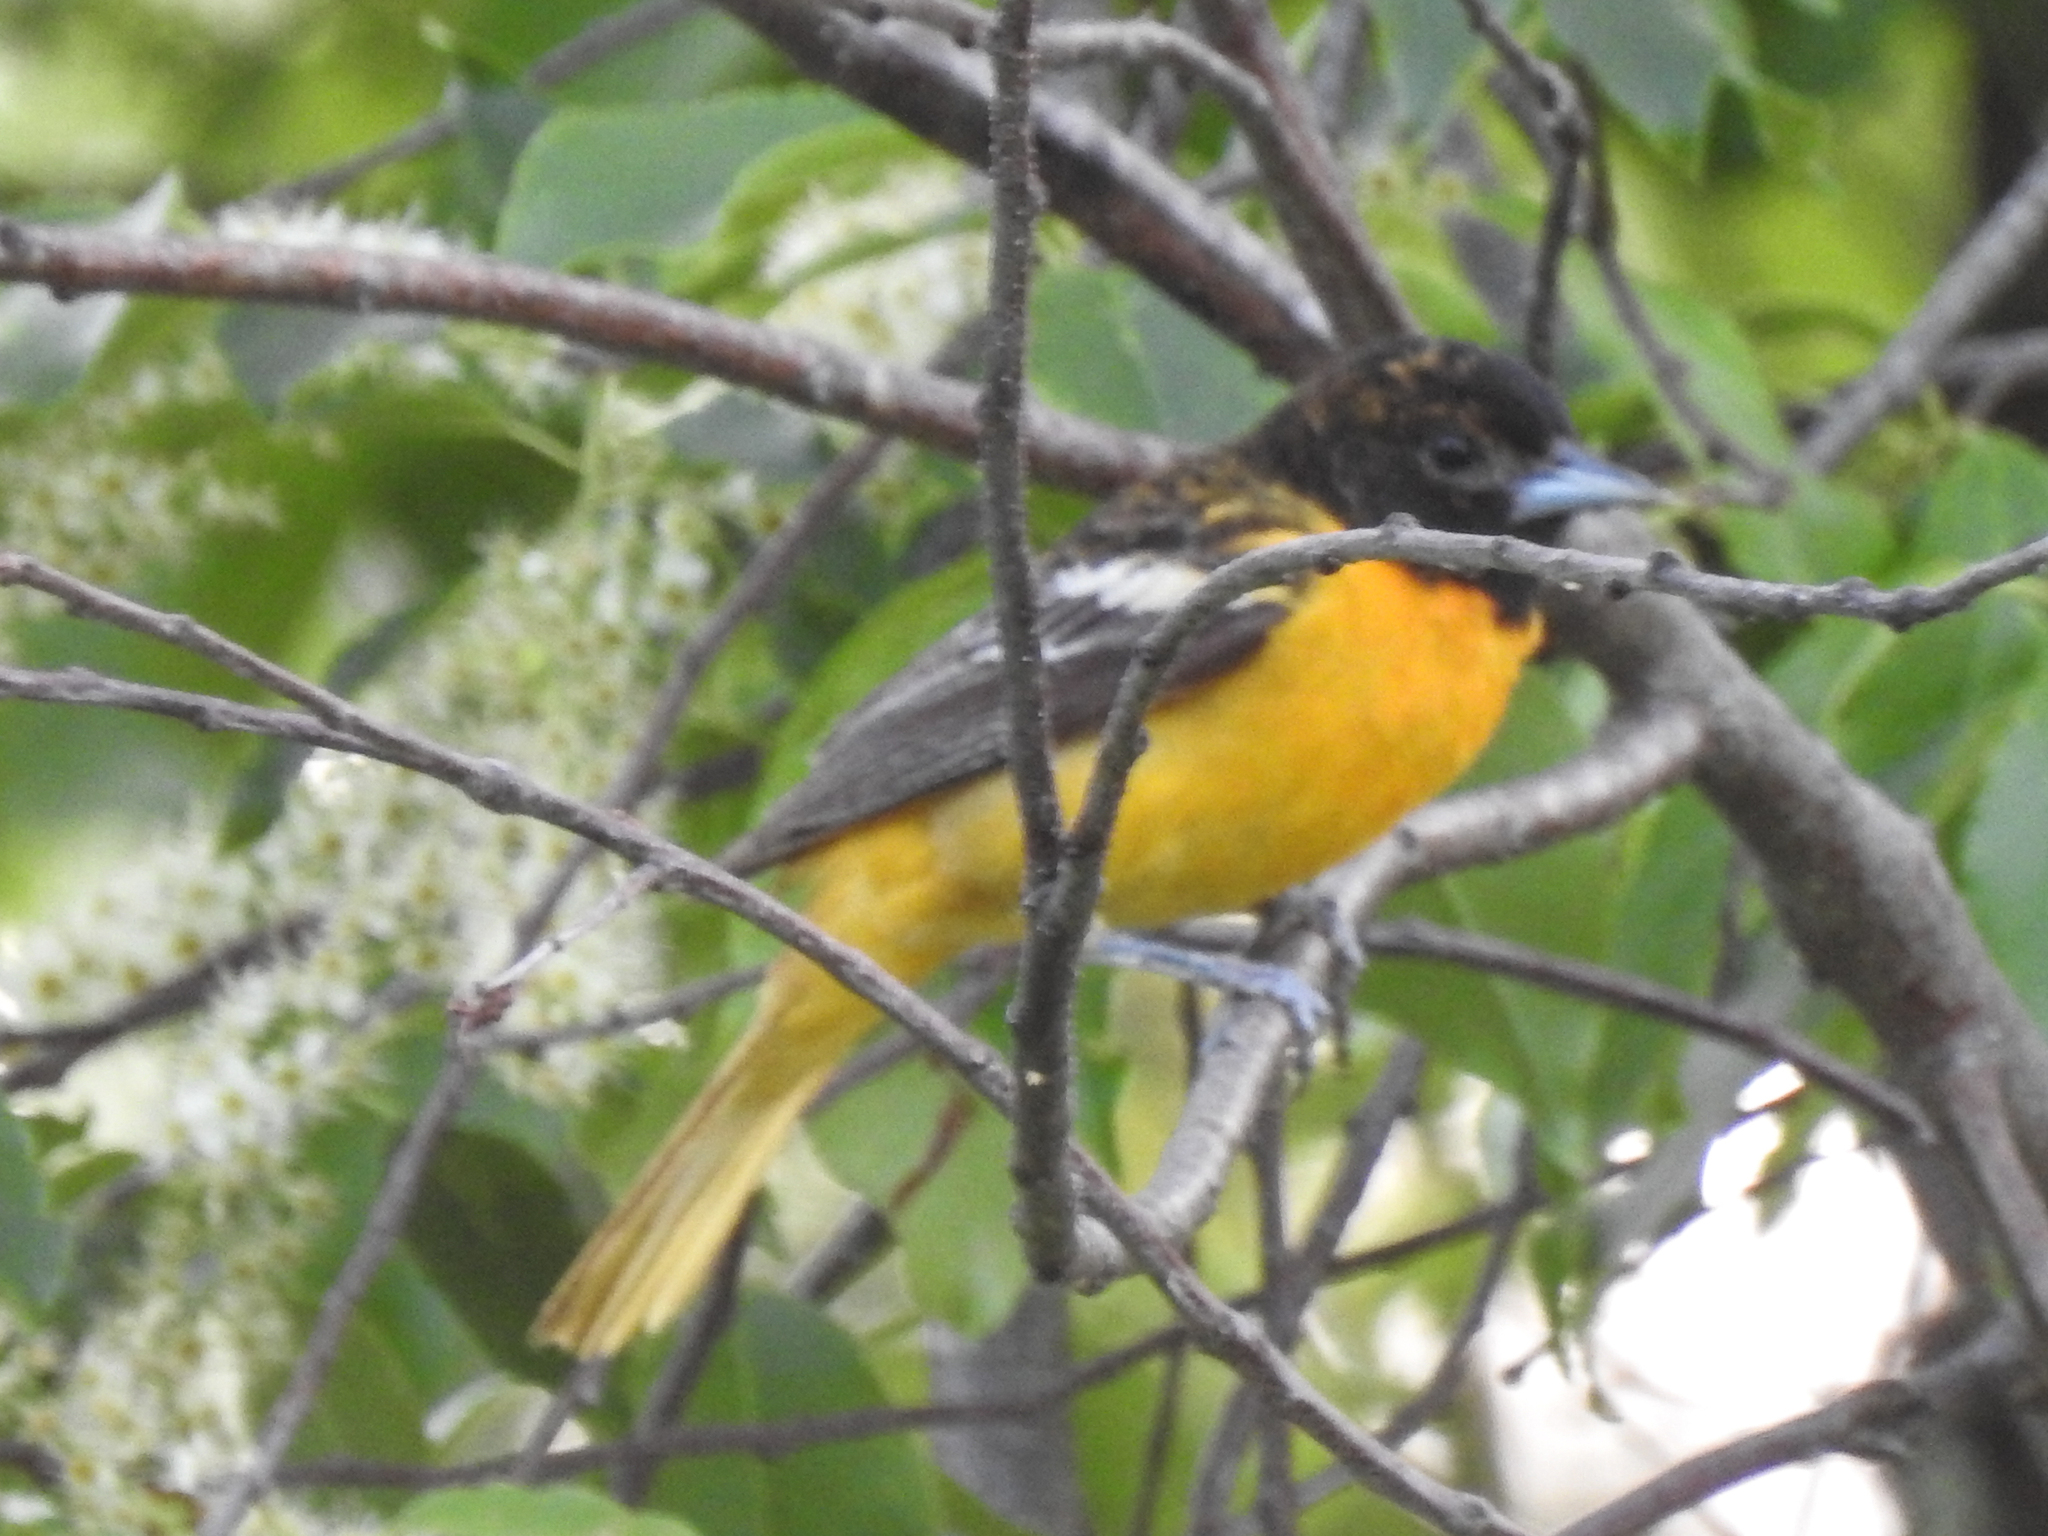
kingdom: Animalia
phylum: Chordata
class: Aves
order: Passeriformes
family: Icteridae
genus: Icterus
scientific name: Icterus galbula
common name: Baltimore oriole
